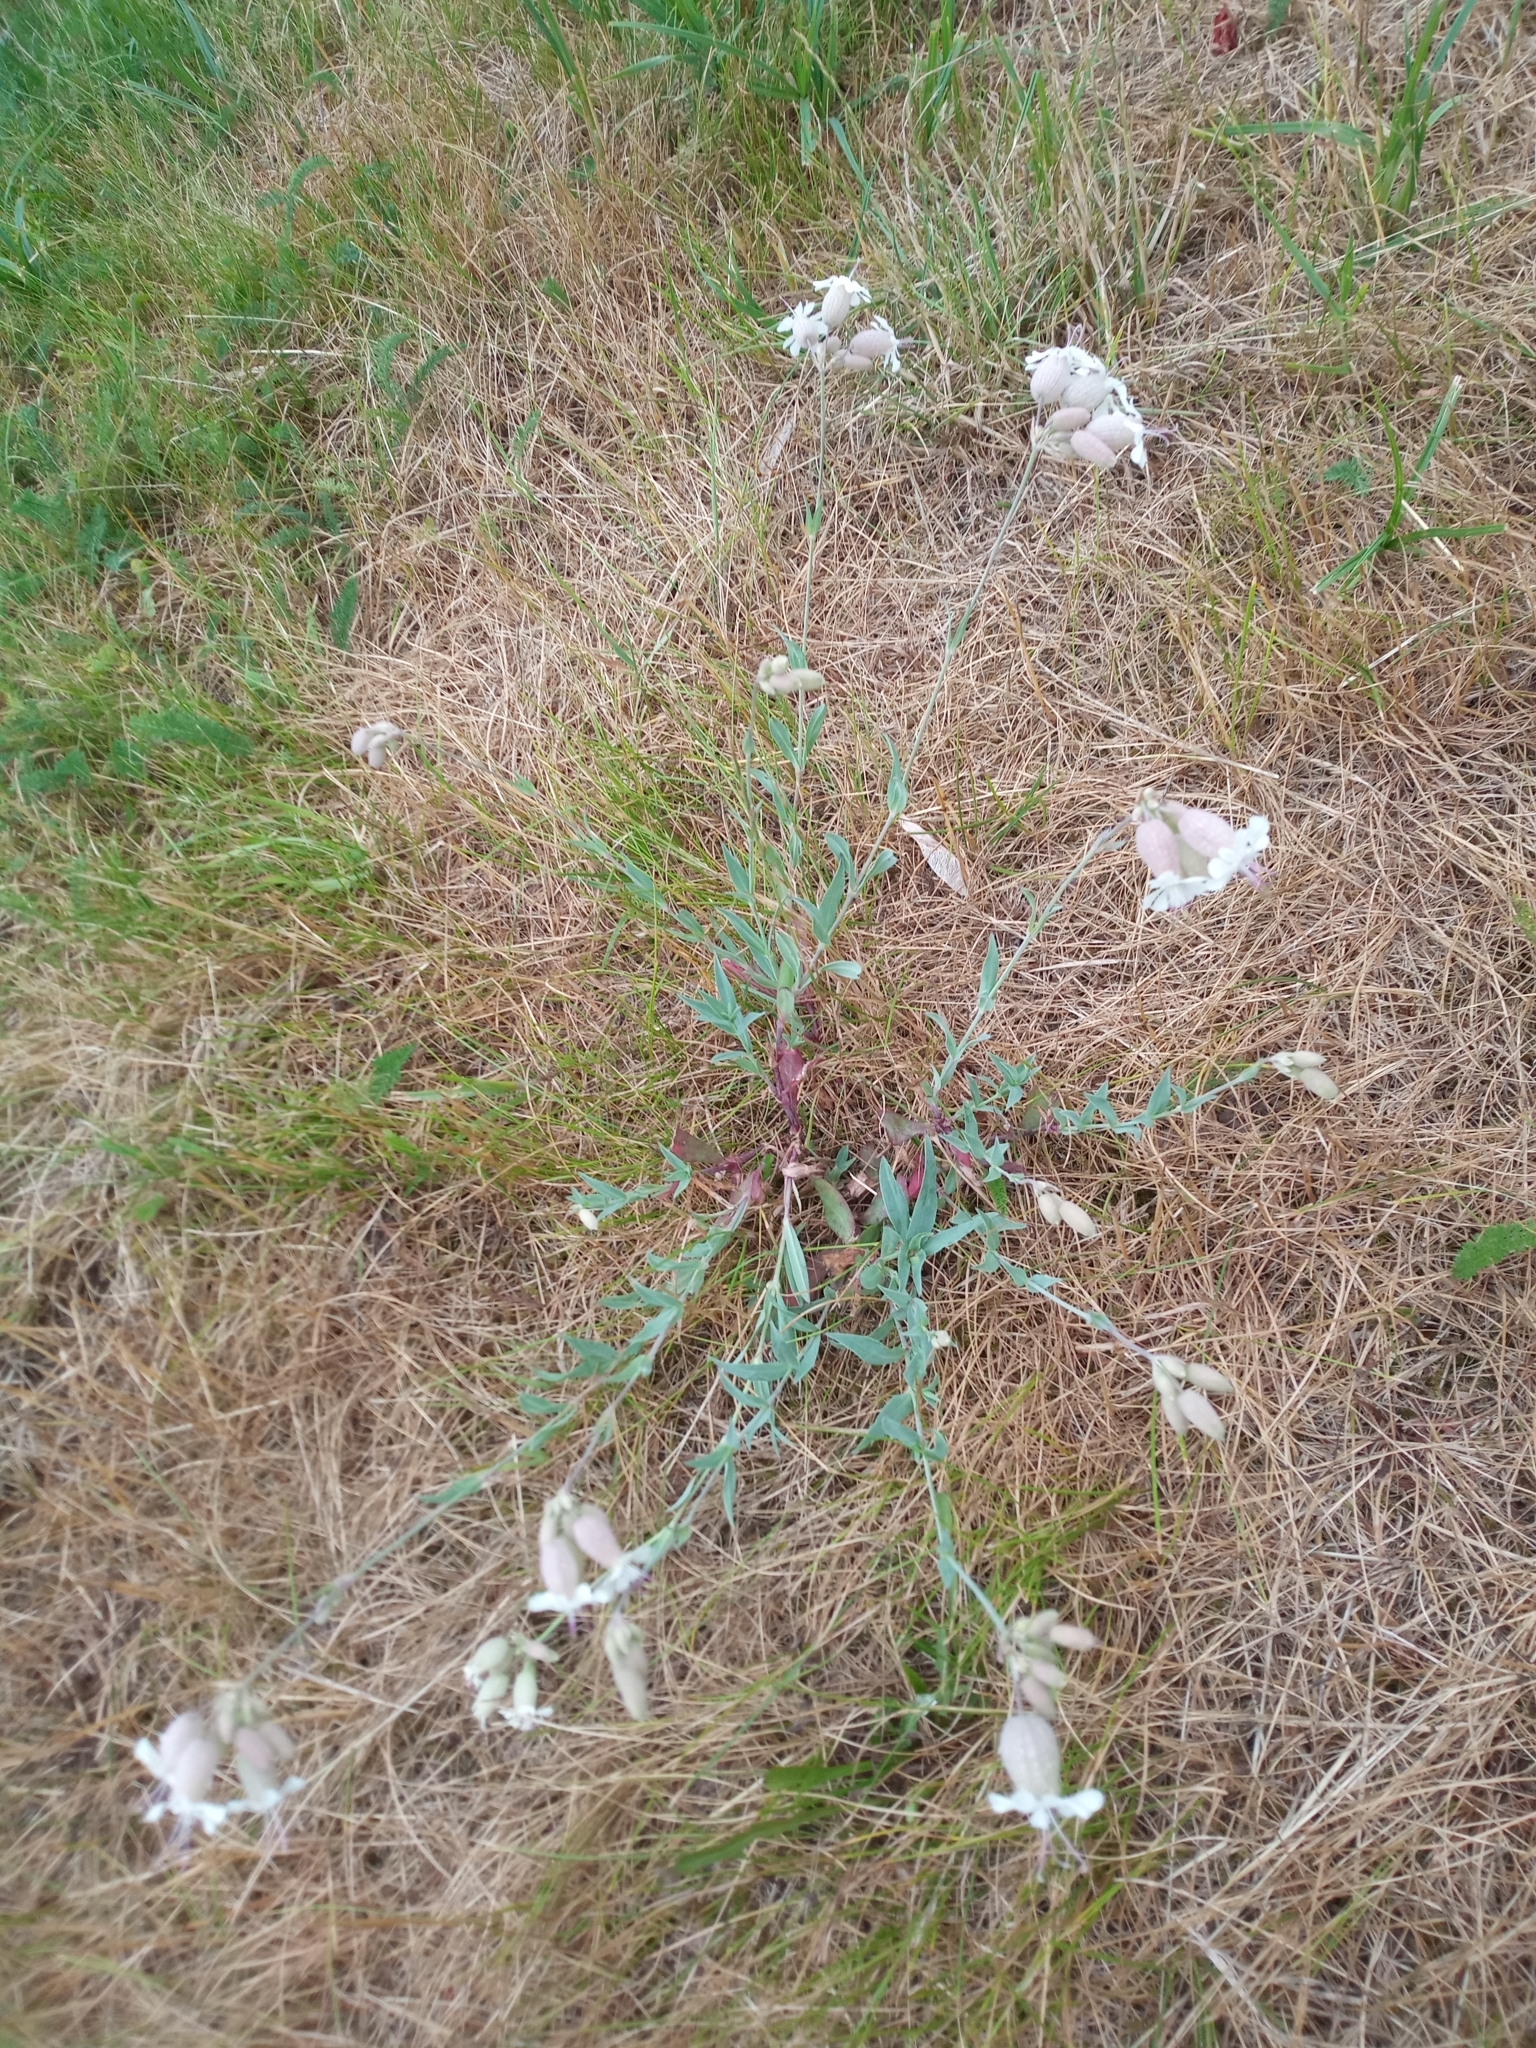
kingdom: Plantae
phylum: Tracheophyta
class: Magnoliopsida
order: Caryophyllales
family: Caryophyllaceae
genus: Silene
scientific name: Silene vulgaris
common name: Bladder campion
